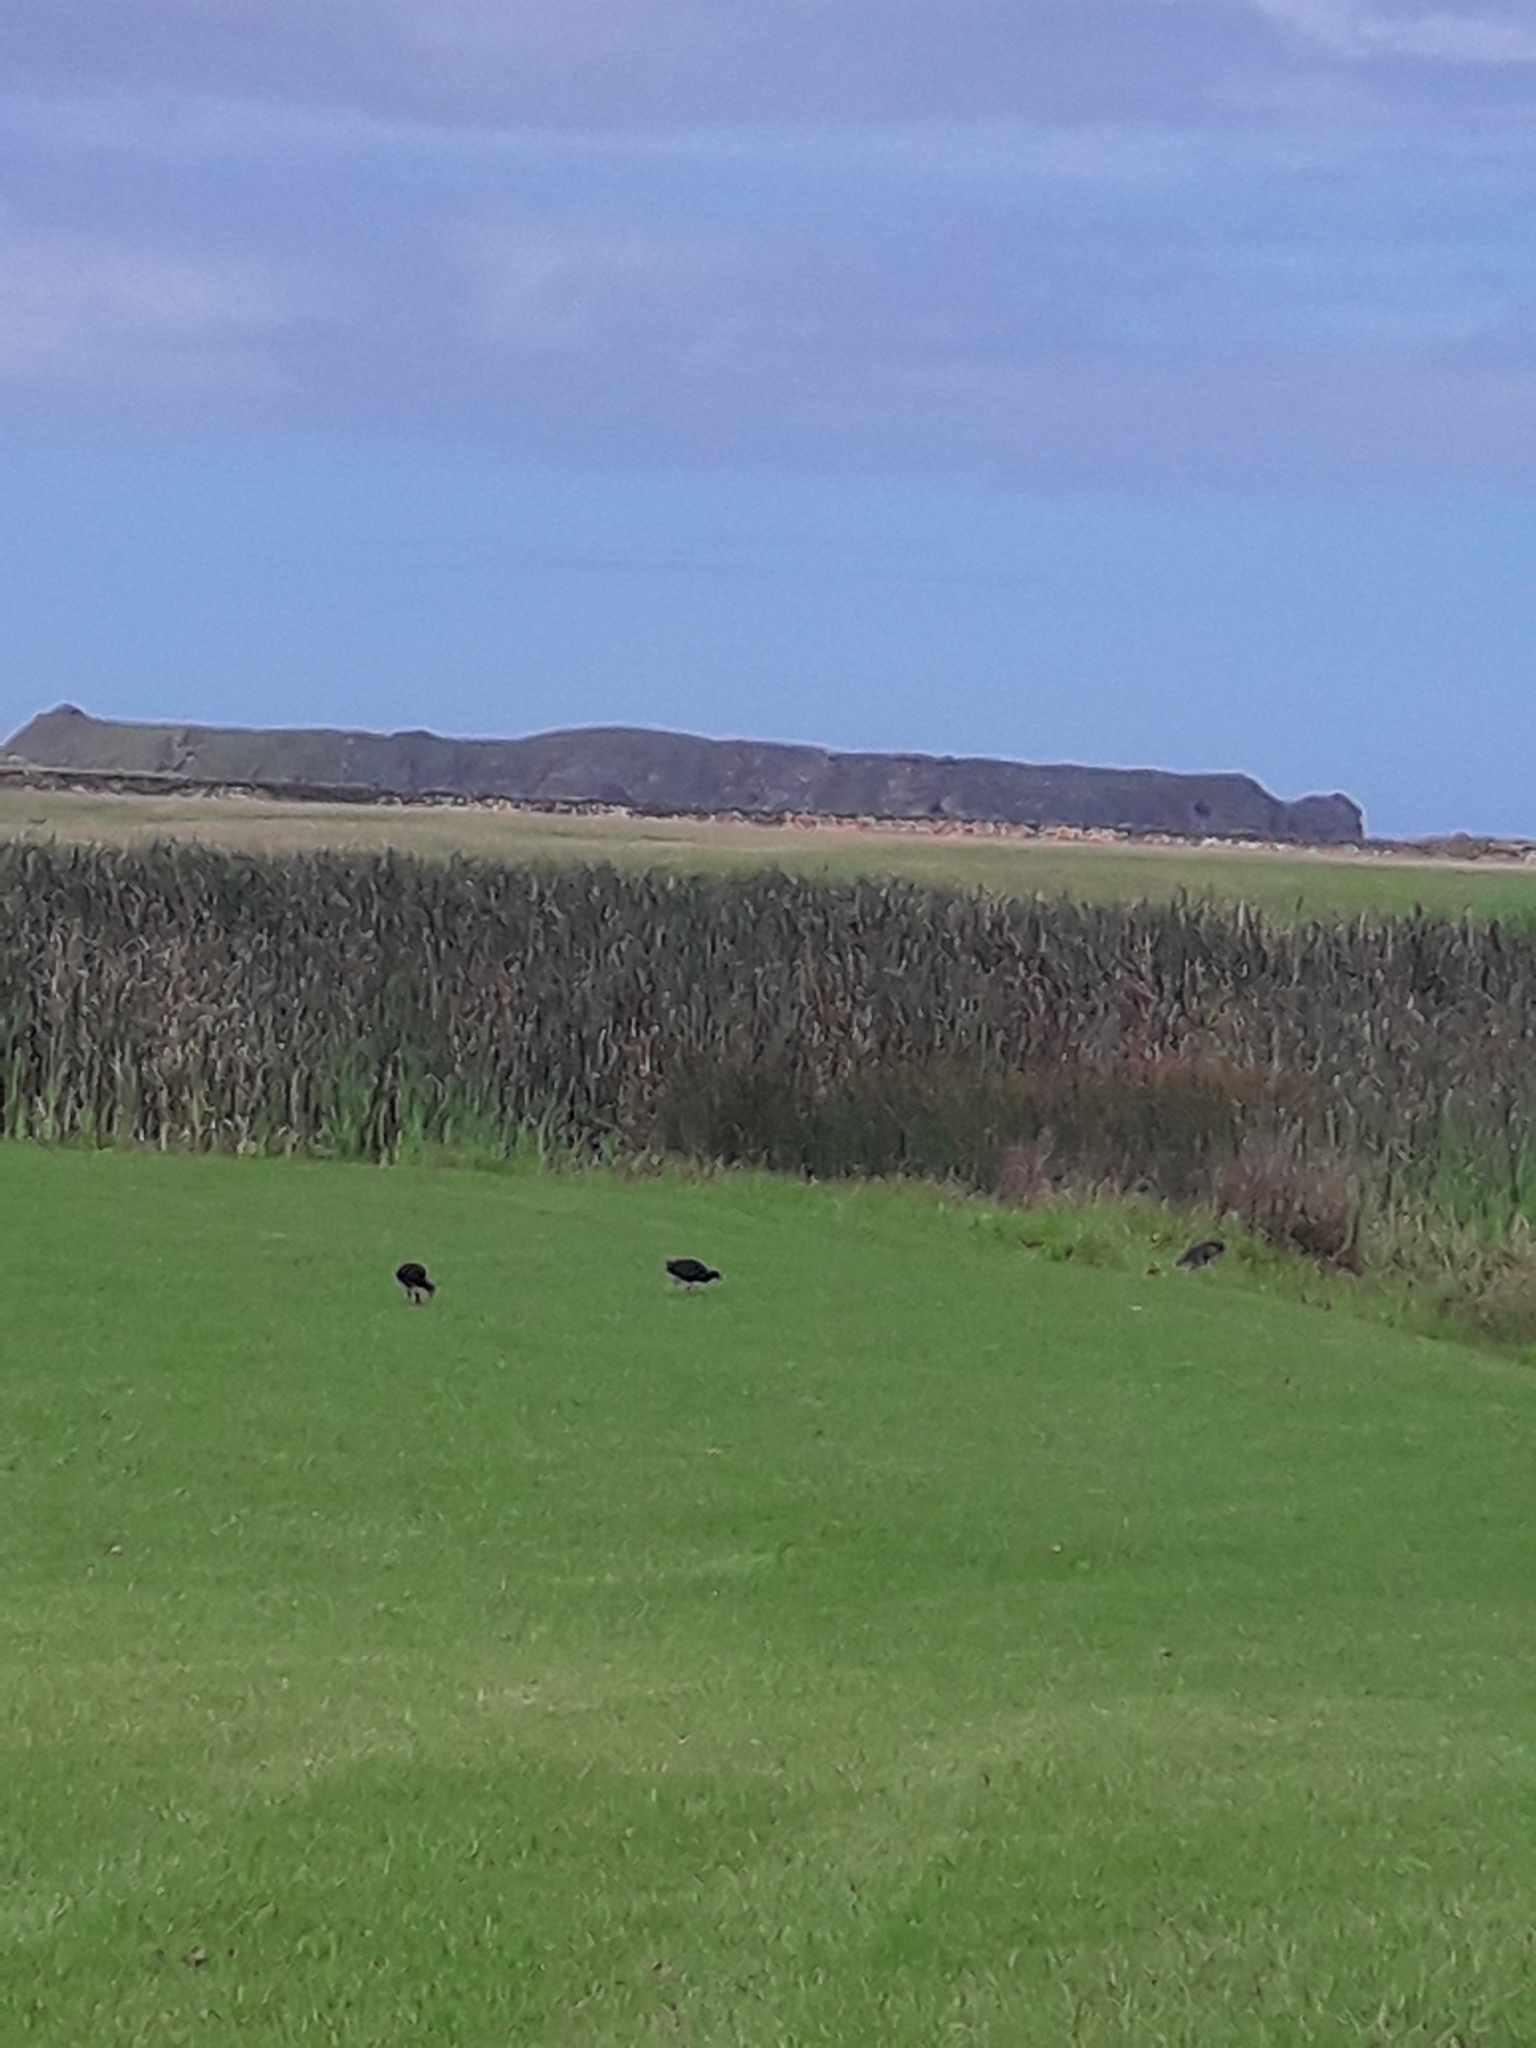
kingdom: Animalia
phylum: Chordata
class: Aves
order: Gruiformes
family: Rallidae
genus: Porphyrio
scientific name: Porphyrio melanotus
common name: Australasian swamphen
